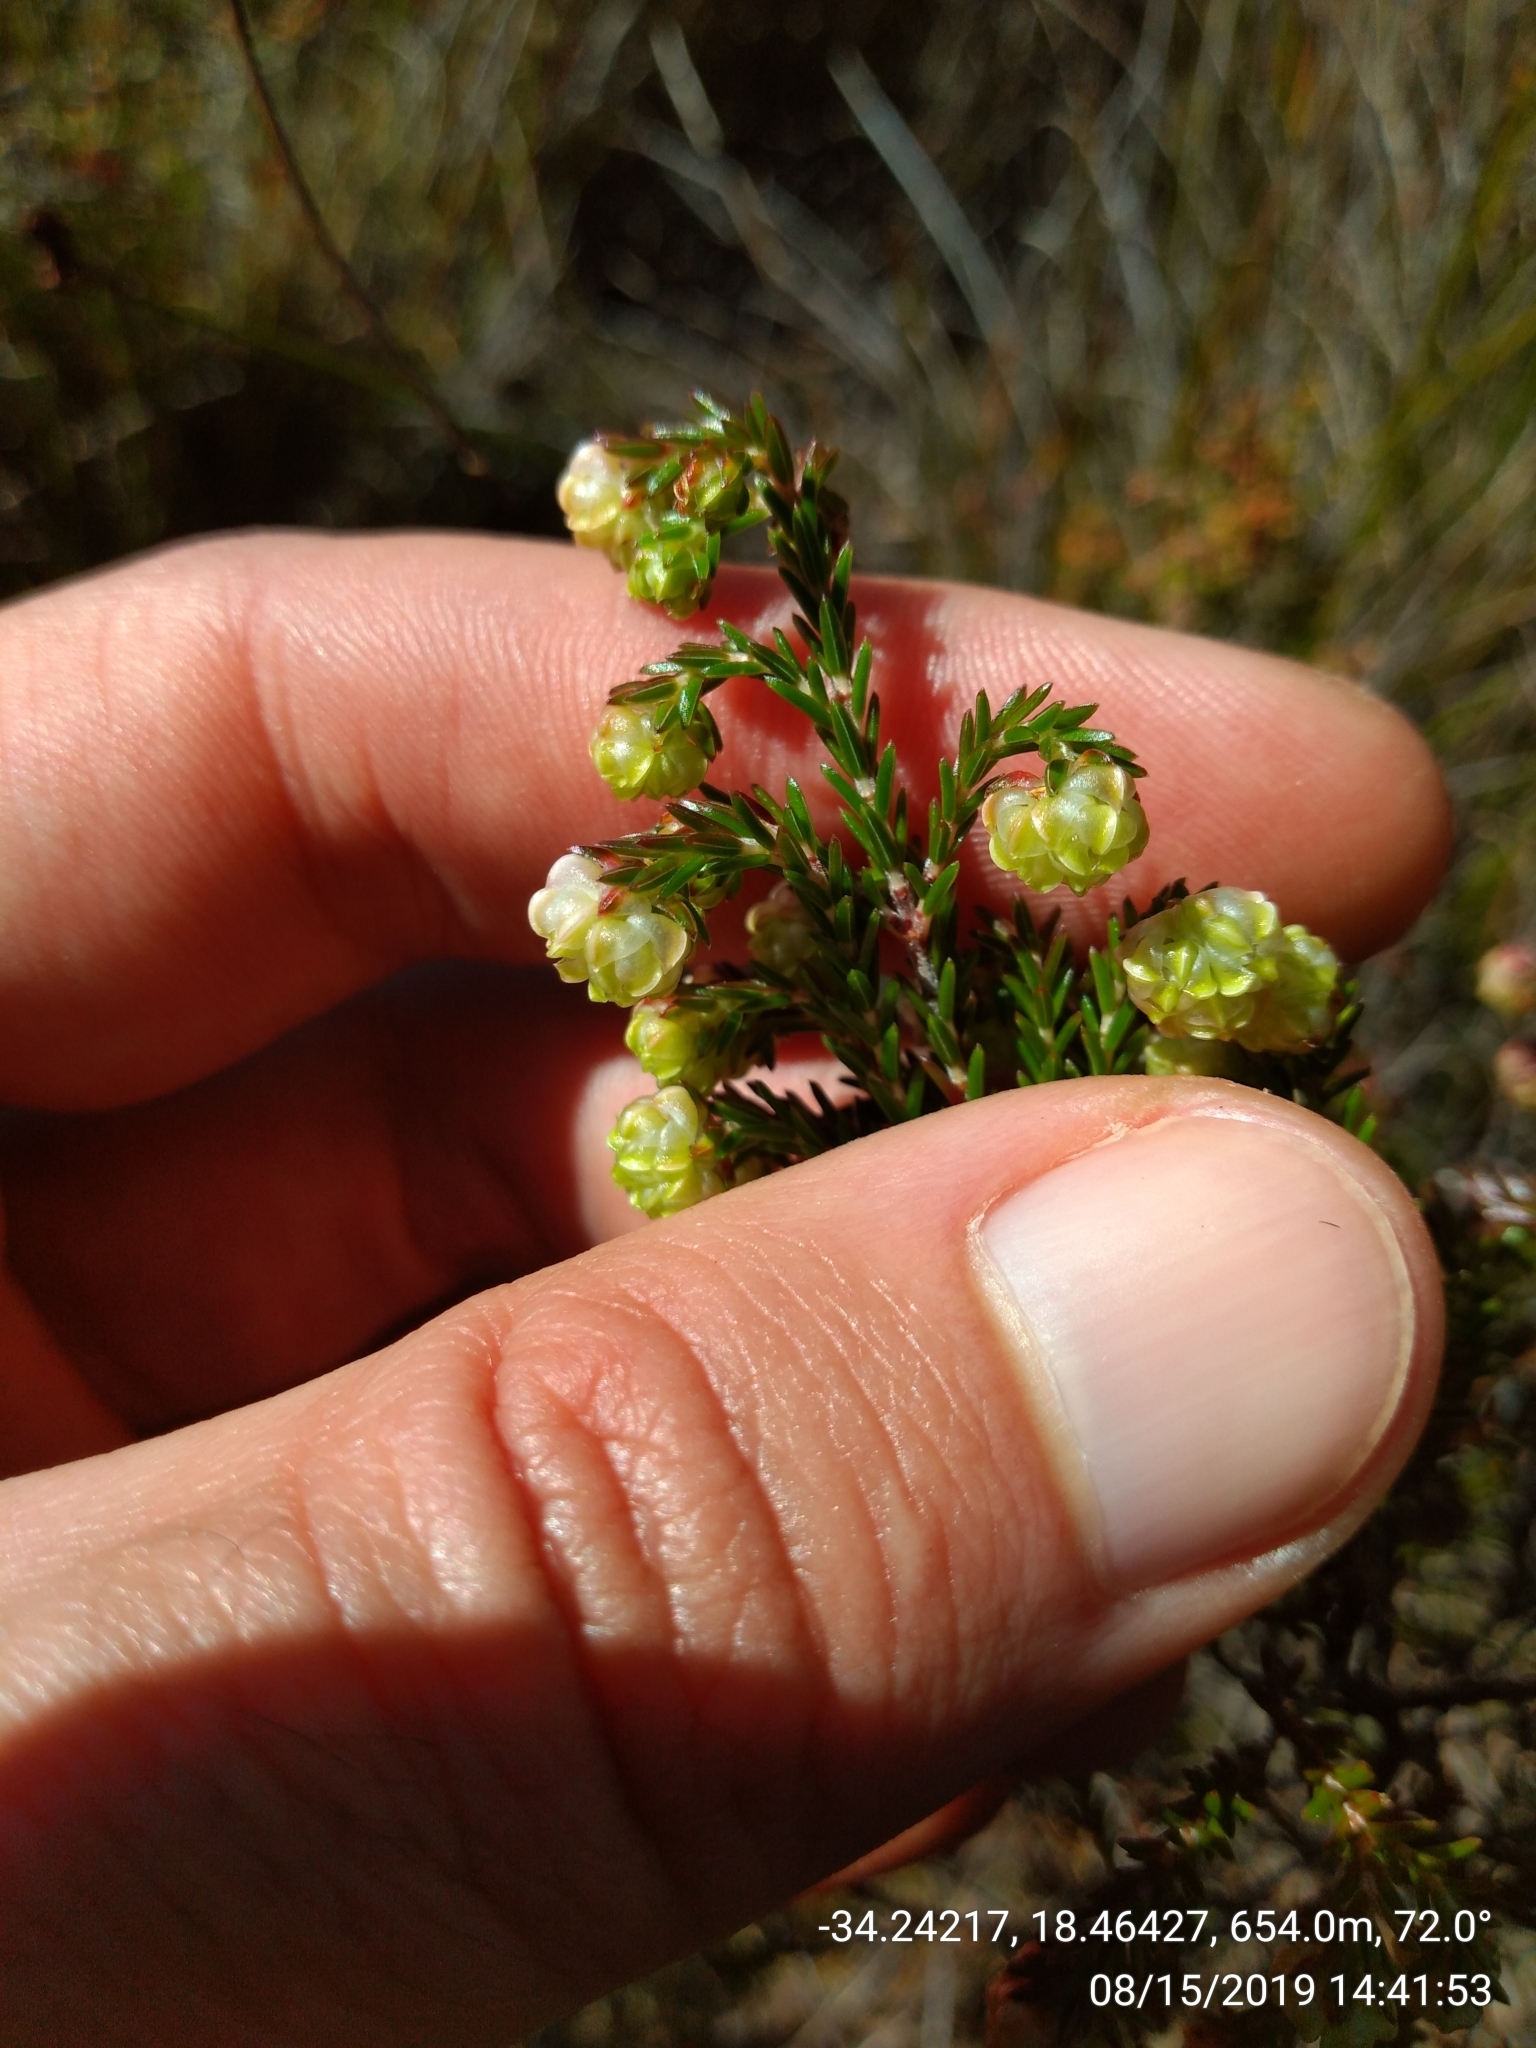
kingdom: Plantae
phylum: Tracheophyta
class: Magnoliopsida
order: Ericales
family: Ericaceae
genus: Erica
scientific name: Erica spumosa
